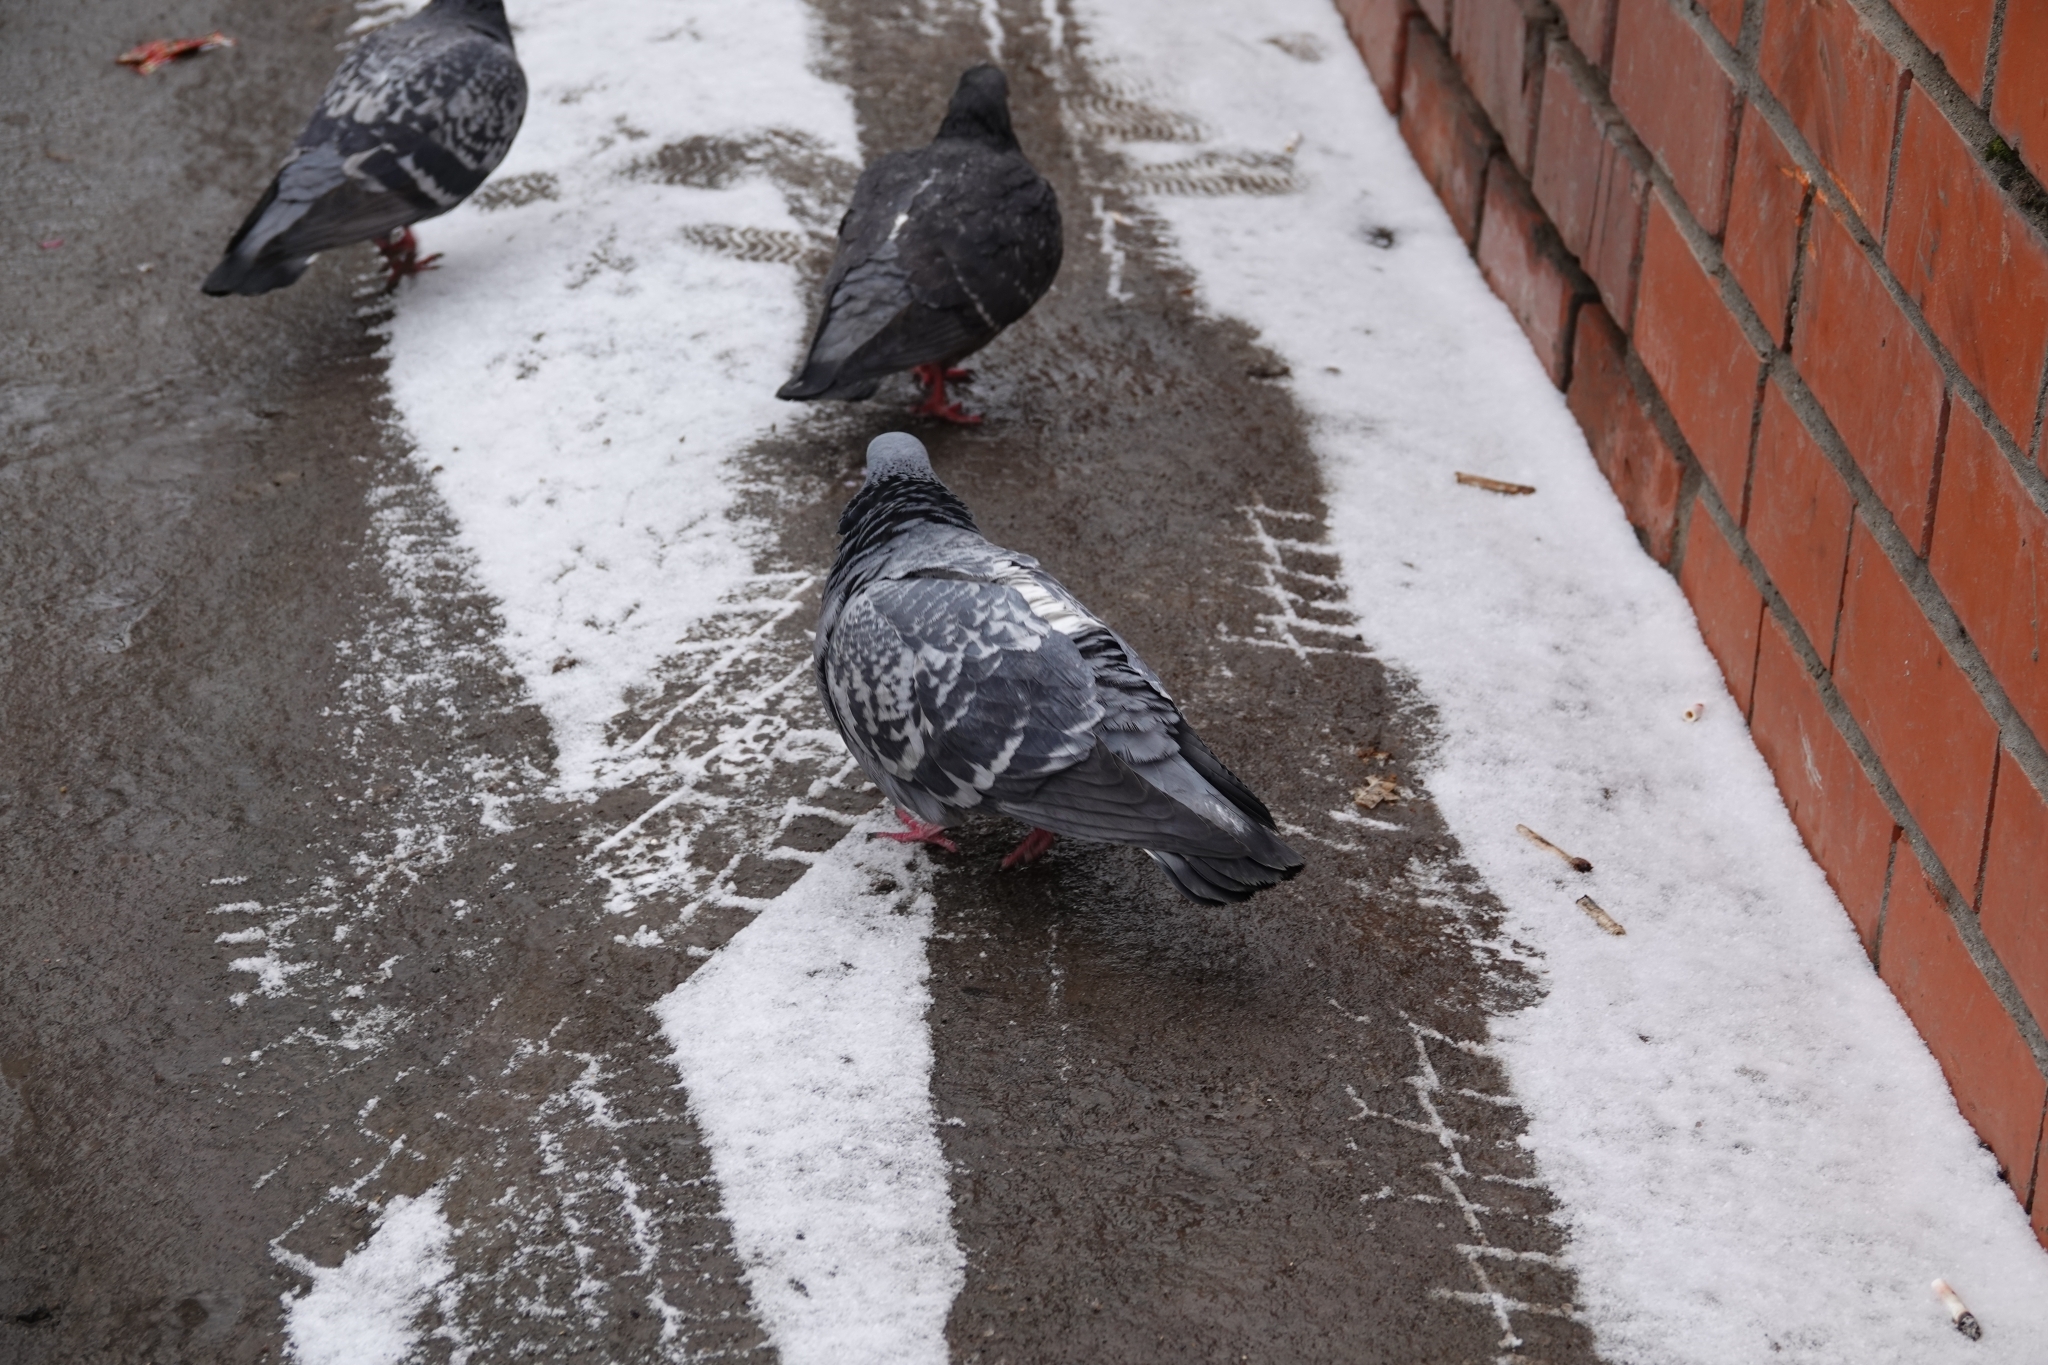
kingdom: Animalia
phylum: Chordata
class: Aves
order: Columbiformes
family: Columbidae
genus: Columba
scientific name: Columba livia
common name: Rock pigeon
